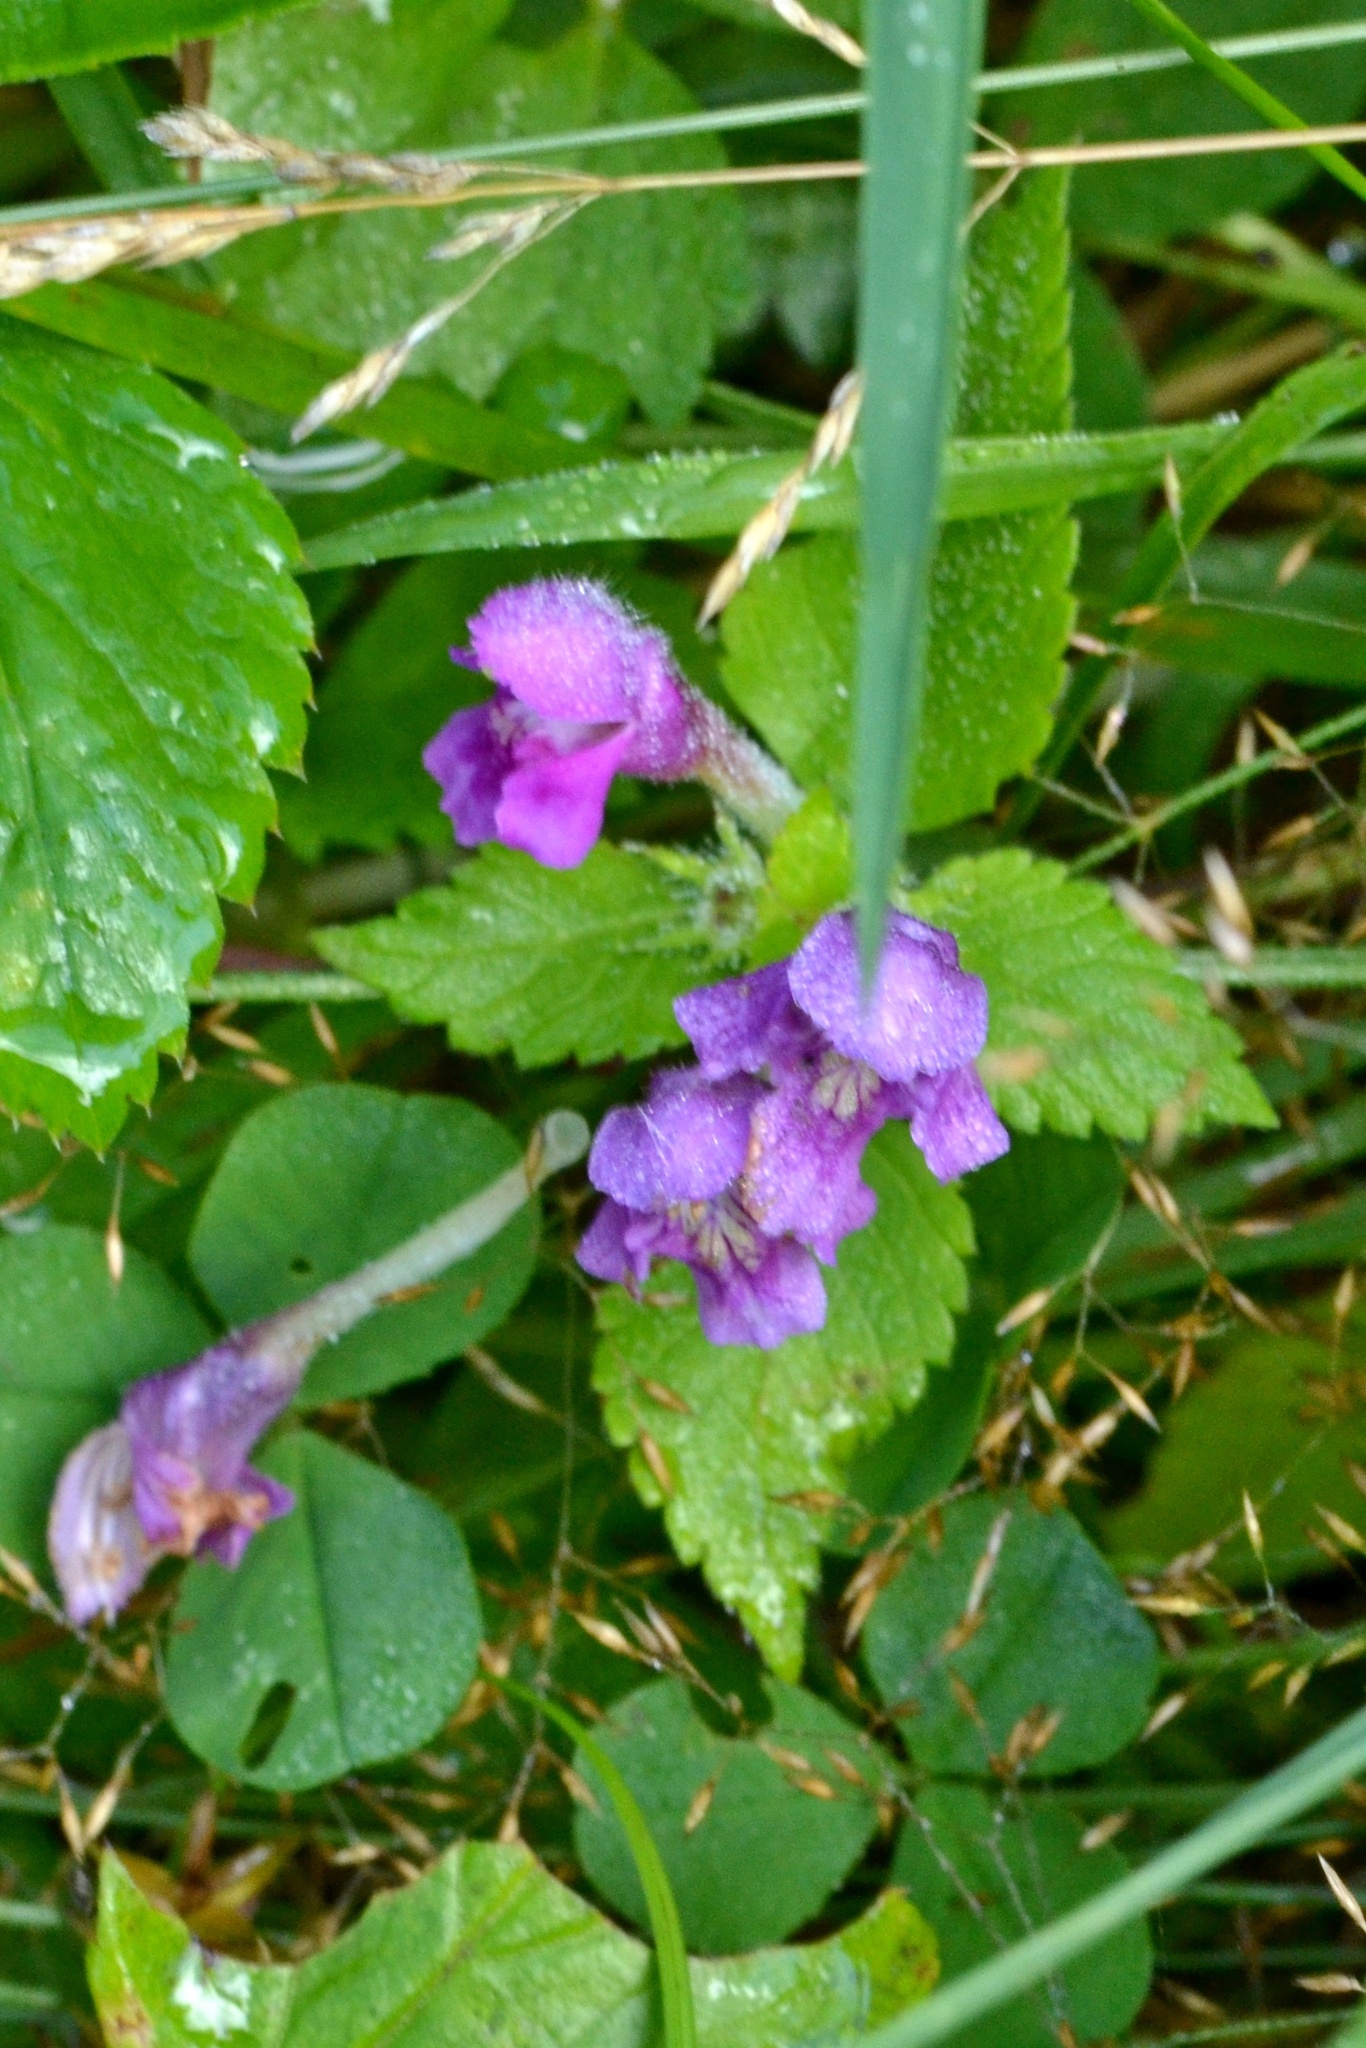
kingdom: Plantae
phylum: Tracheophyta
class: Magnoliopsida
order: Lamiales
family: Lamiaceae
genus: Galeopsis
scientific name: Galeopsis pubescens
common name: Downy hemp-nettle
